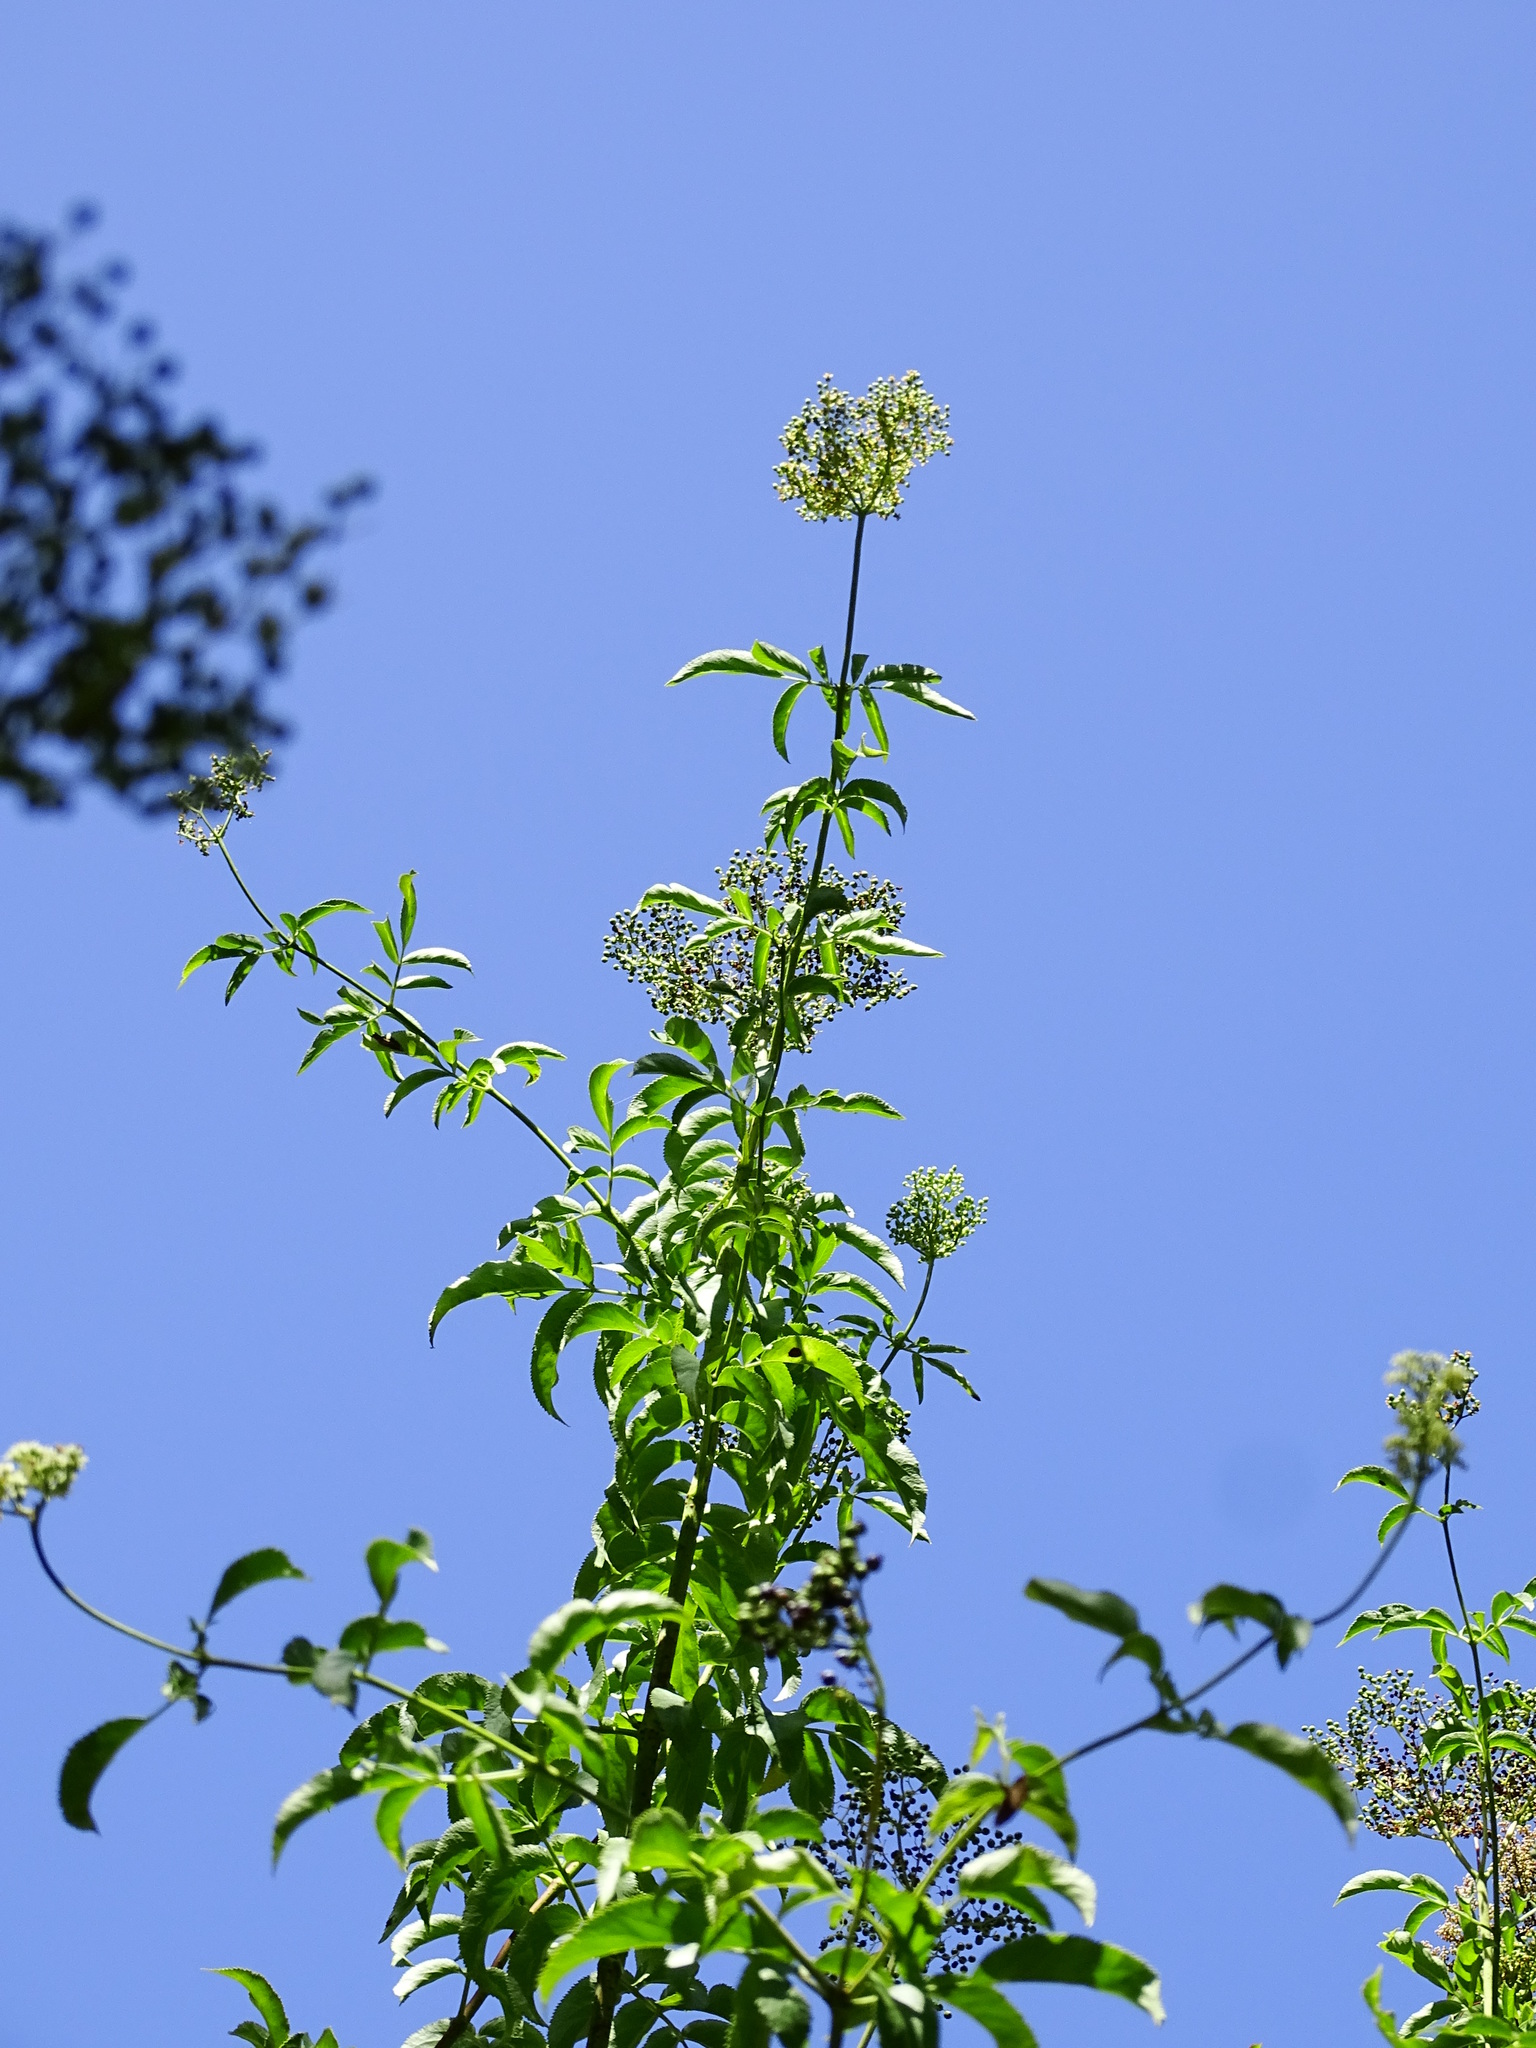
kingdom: Plantae
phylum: Tracheophyta
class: Magnoliopsida
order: Dipsacales
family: Viburnaceae
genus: Sambucus
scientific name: Sambucus cerulea
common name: Blue elder
